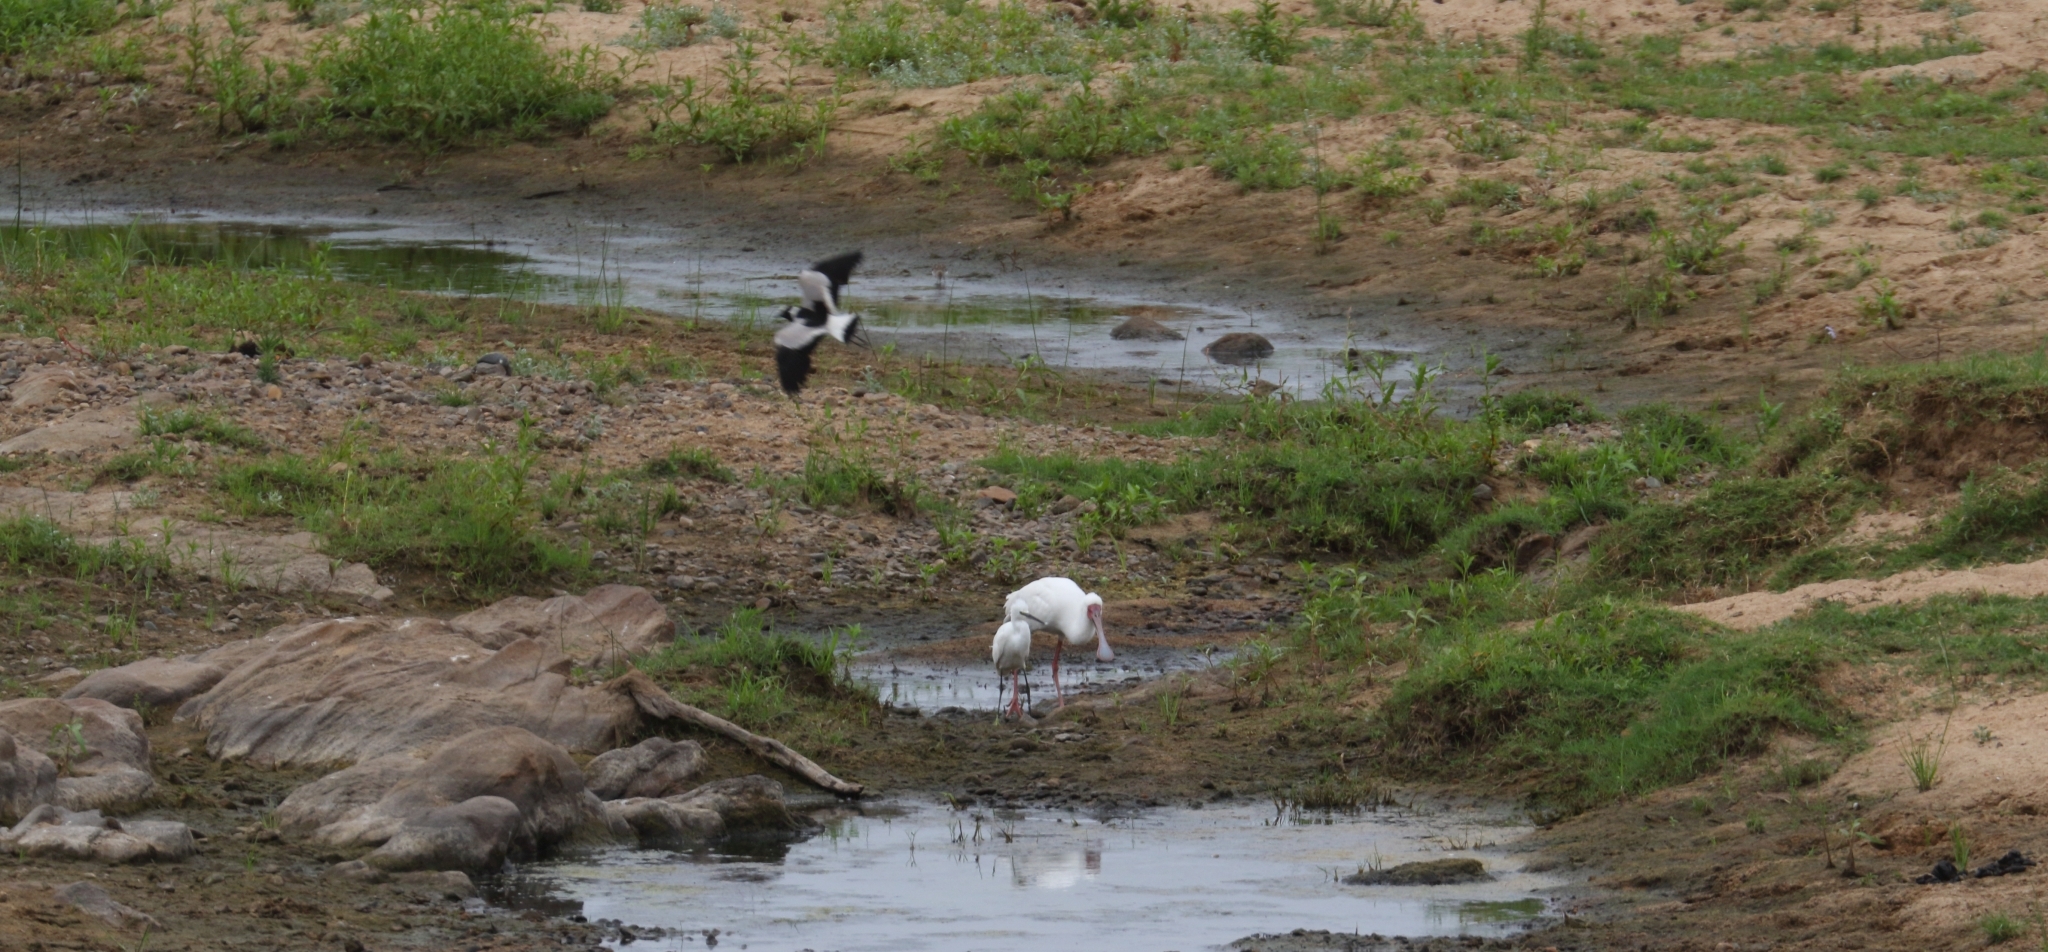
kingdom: Animalia
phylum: Chordata
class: Aves
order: Pelecaniformes
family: Ardeidae
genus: Egretta
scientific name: Egretta garzetta
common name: Little egret
